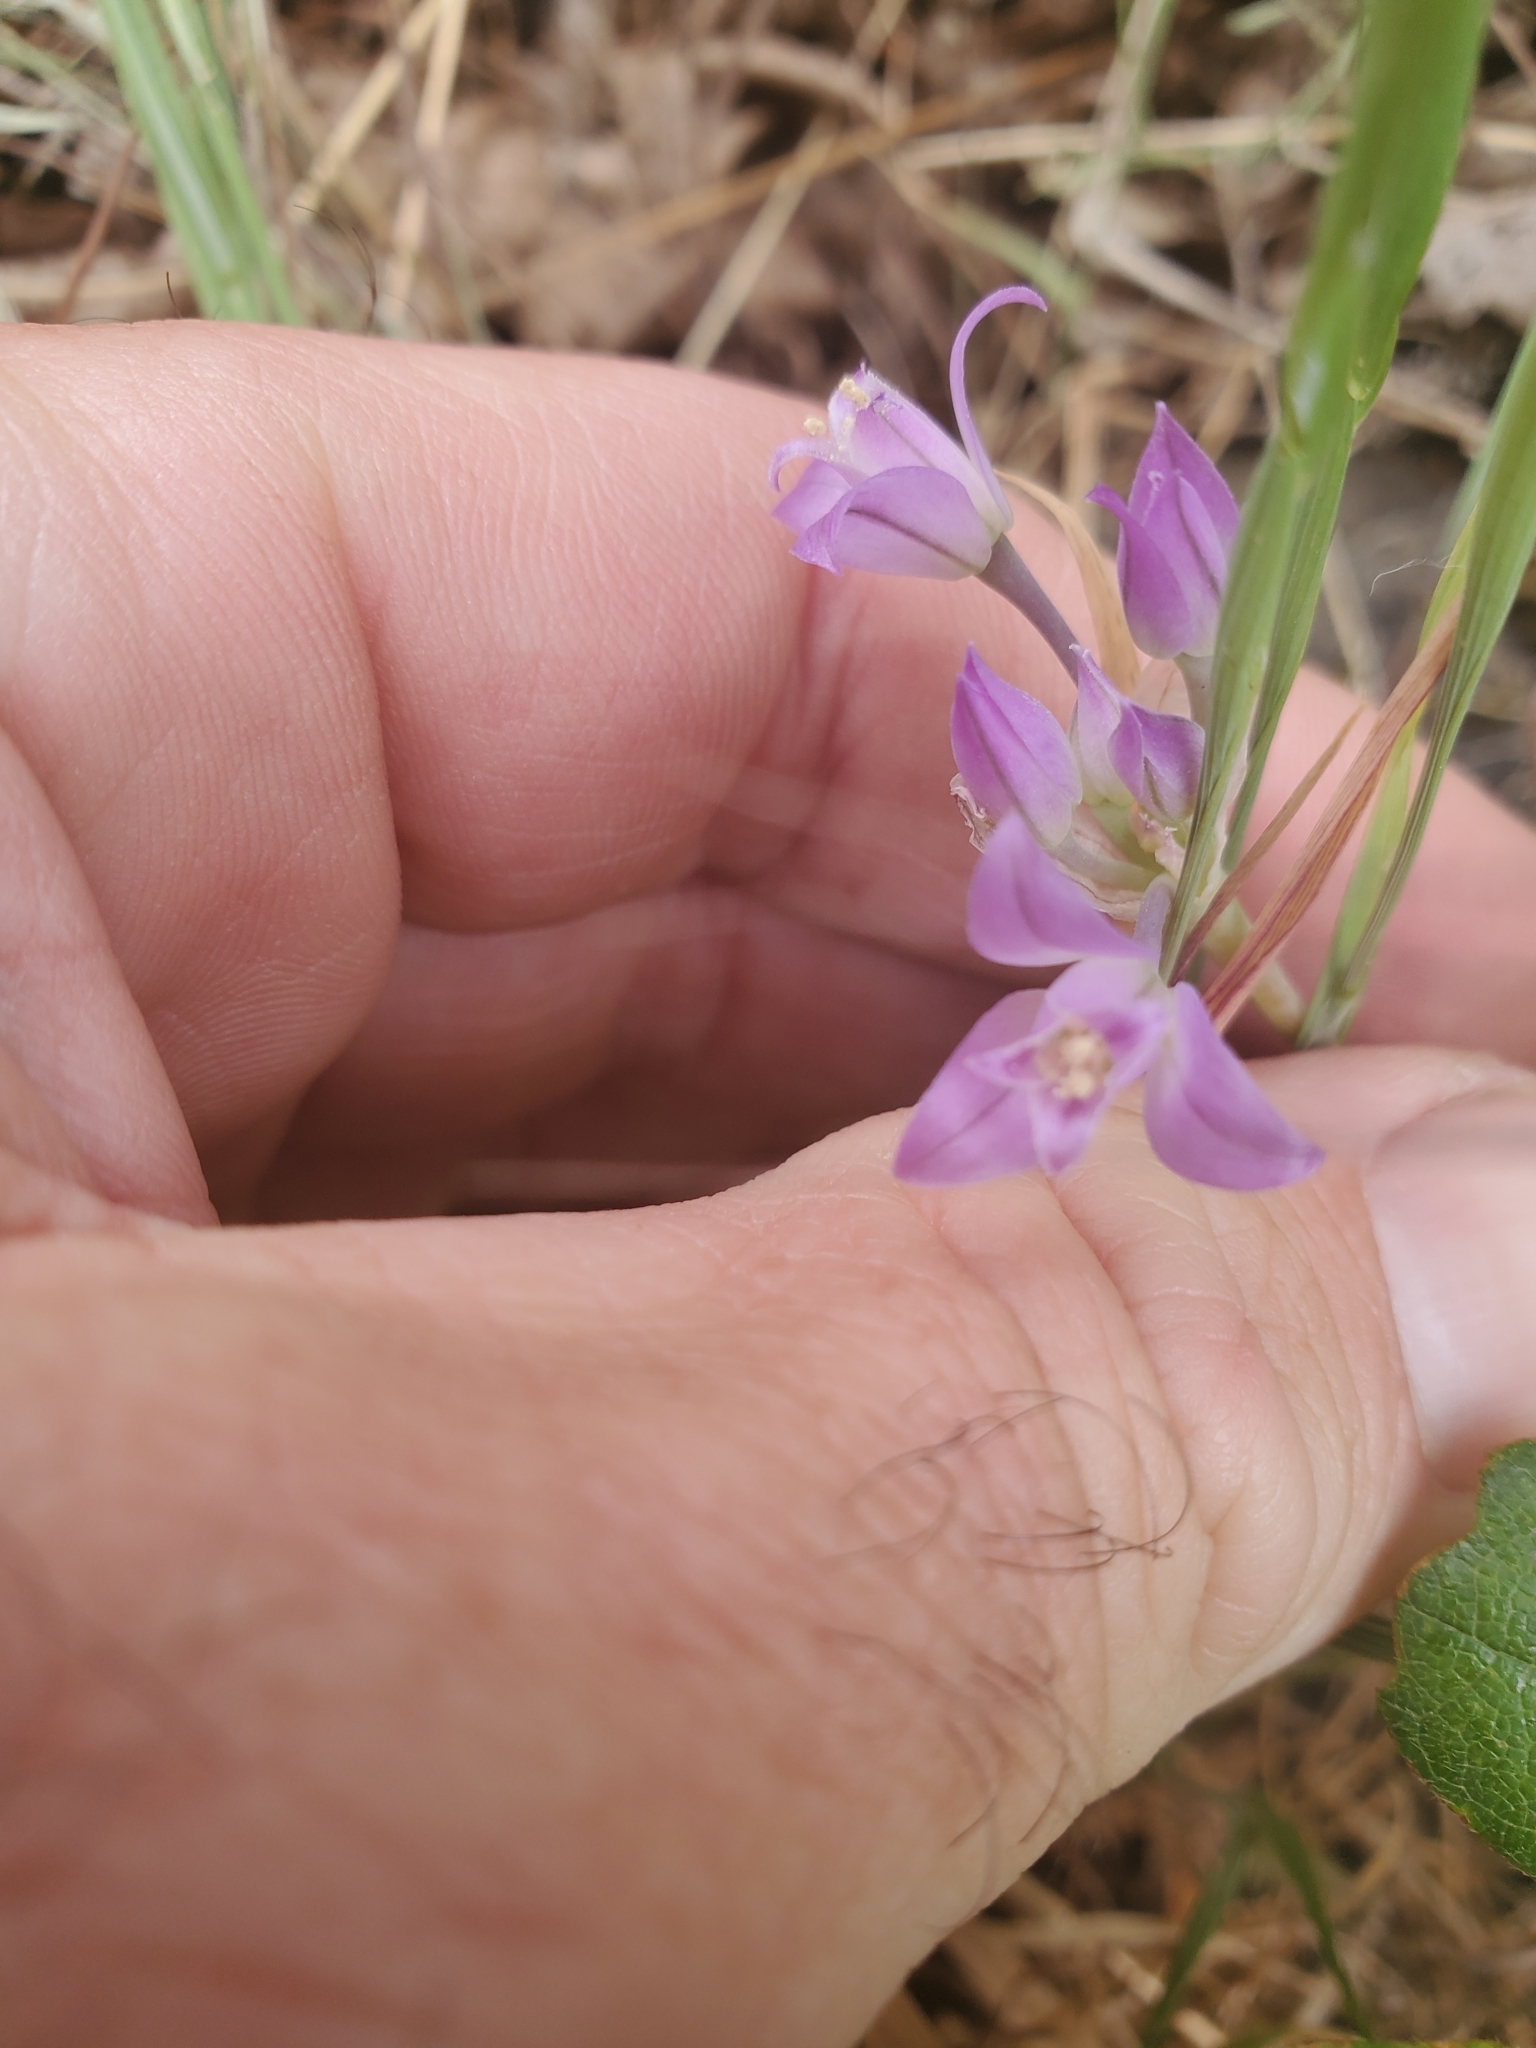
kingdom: Plantae
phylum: Tracheophyta
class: Liliopsida
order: Asparagales
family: Amaryllidaceae
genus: Allium
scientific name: Allium acuminatum
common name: Hooker's onion
